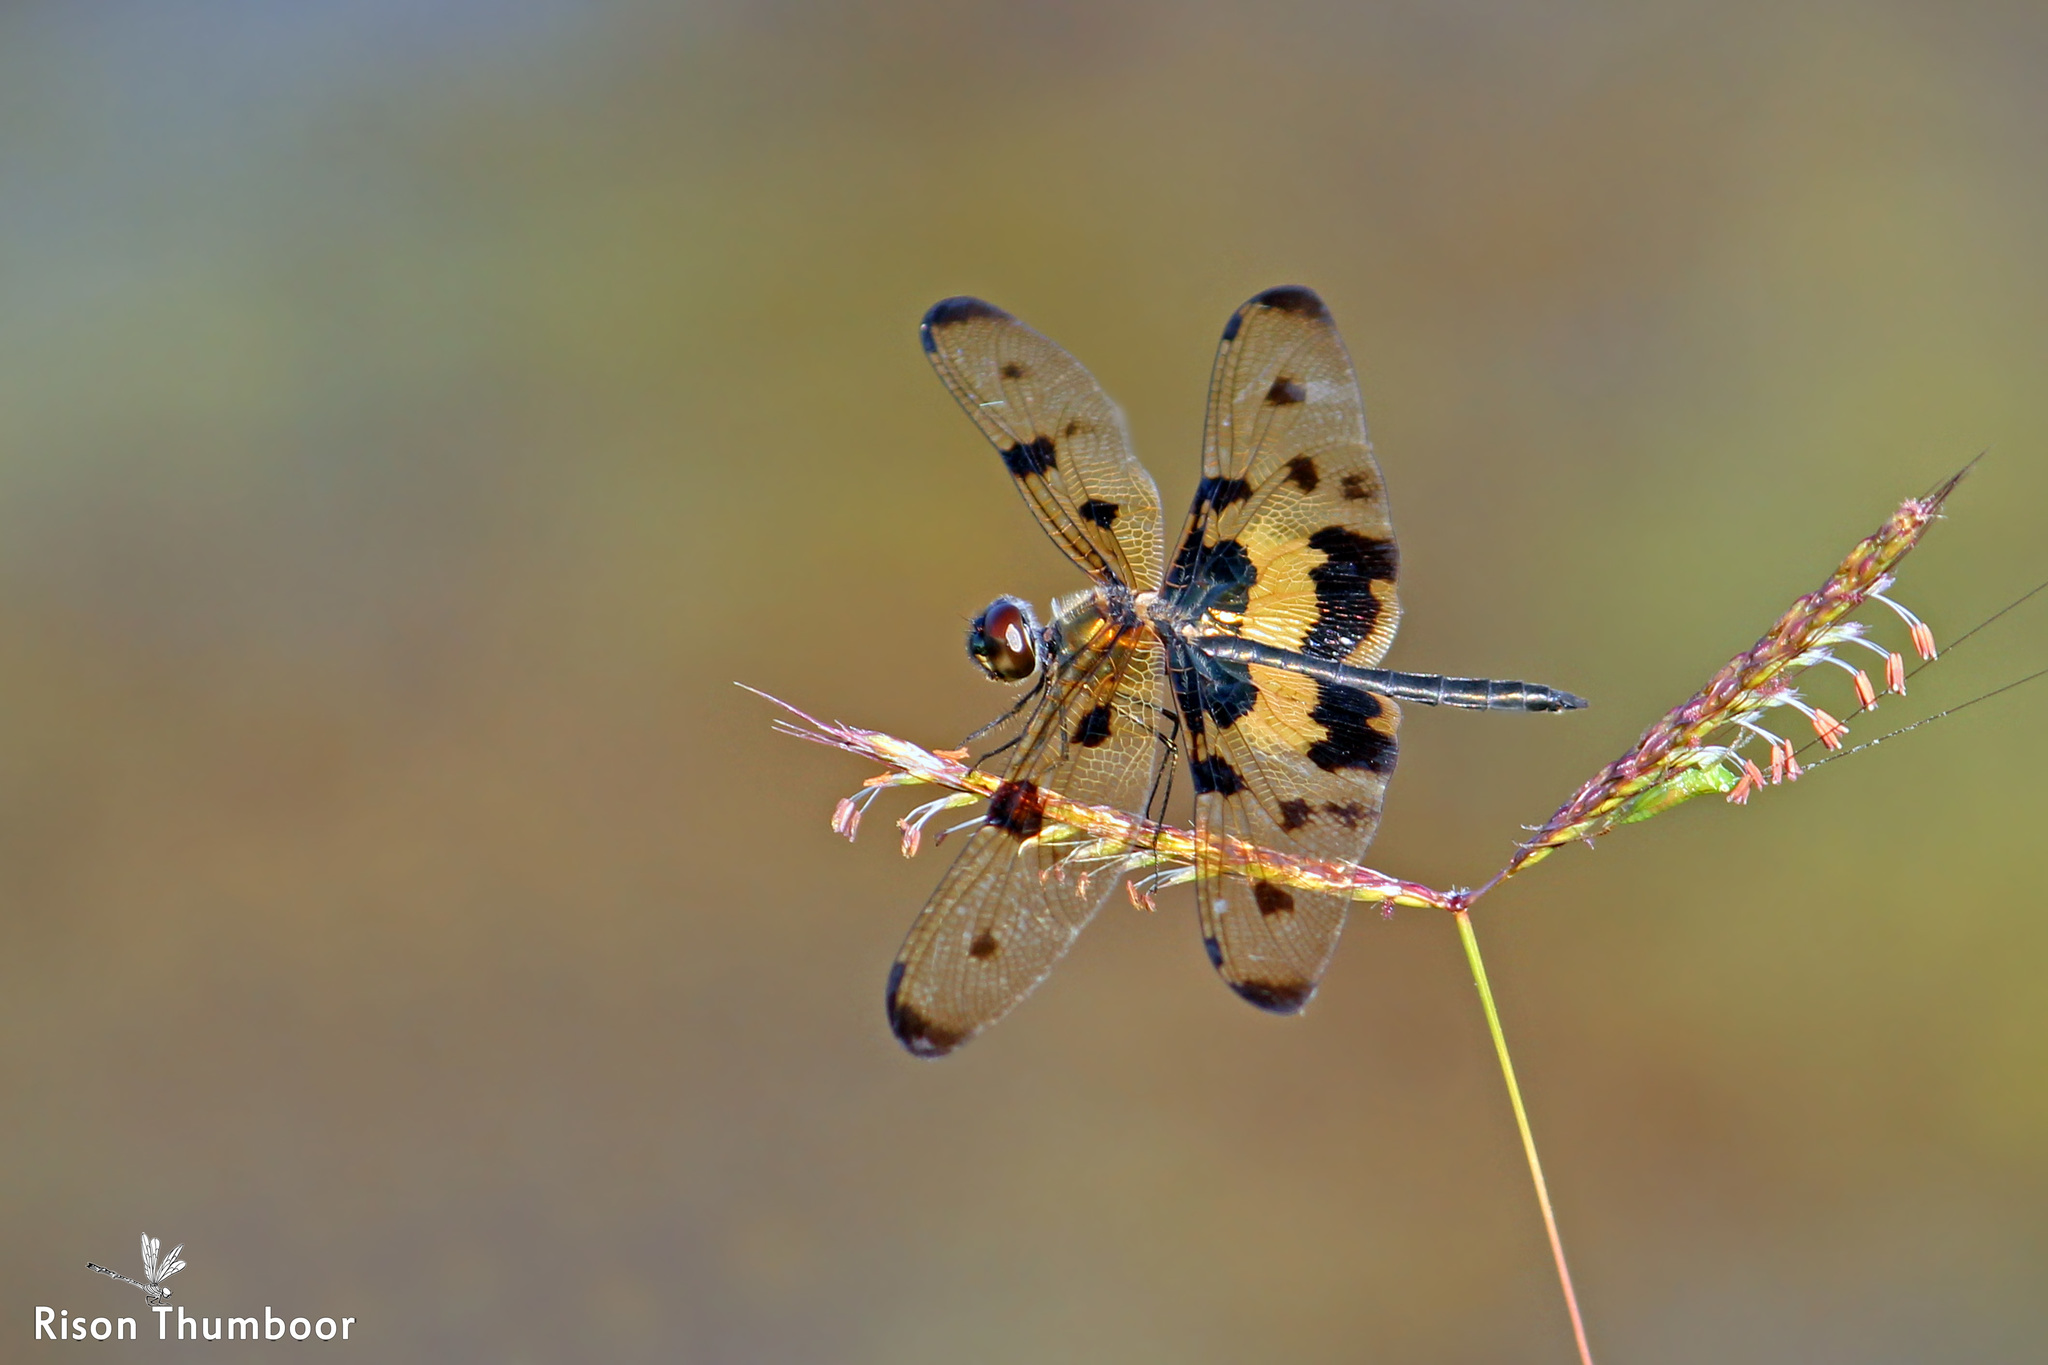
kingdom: Animalia
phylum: Arthropoda
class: Insecta
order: Odonata
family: Libellulidae
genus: Rhyothemis
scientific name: Rhyothemis variegata
